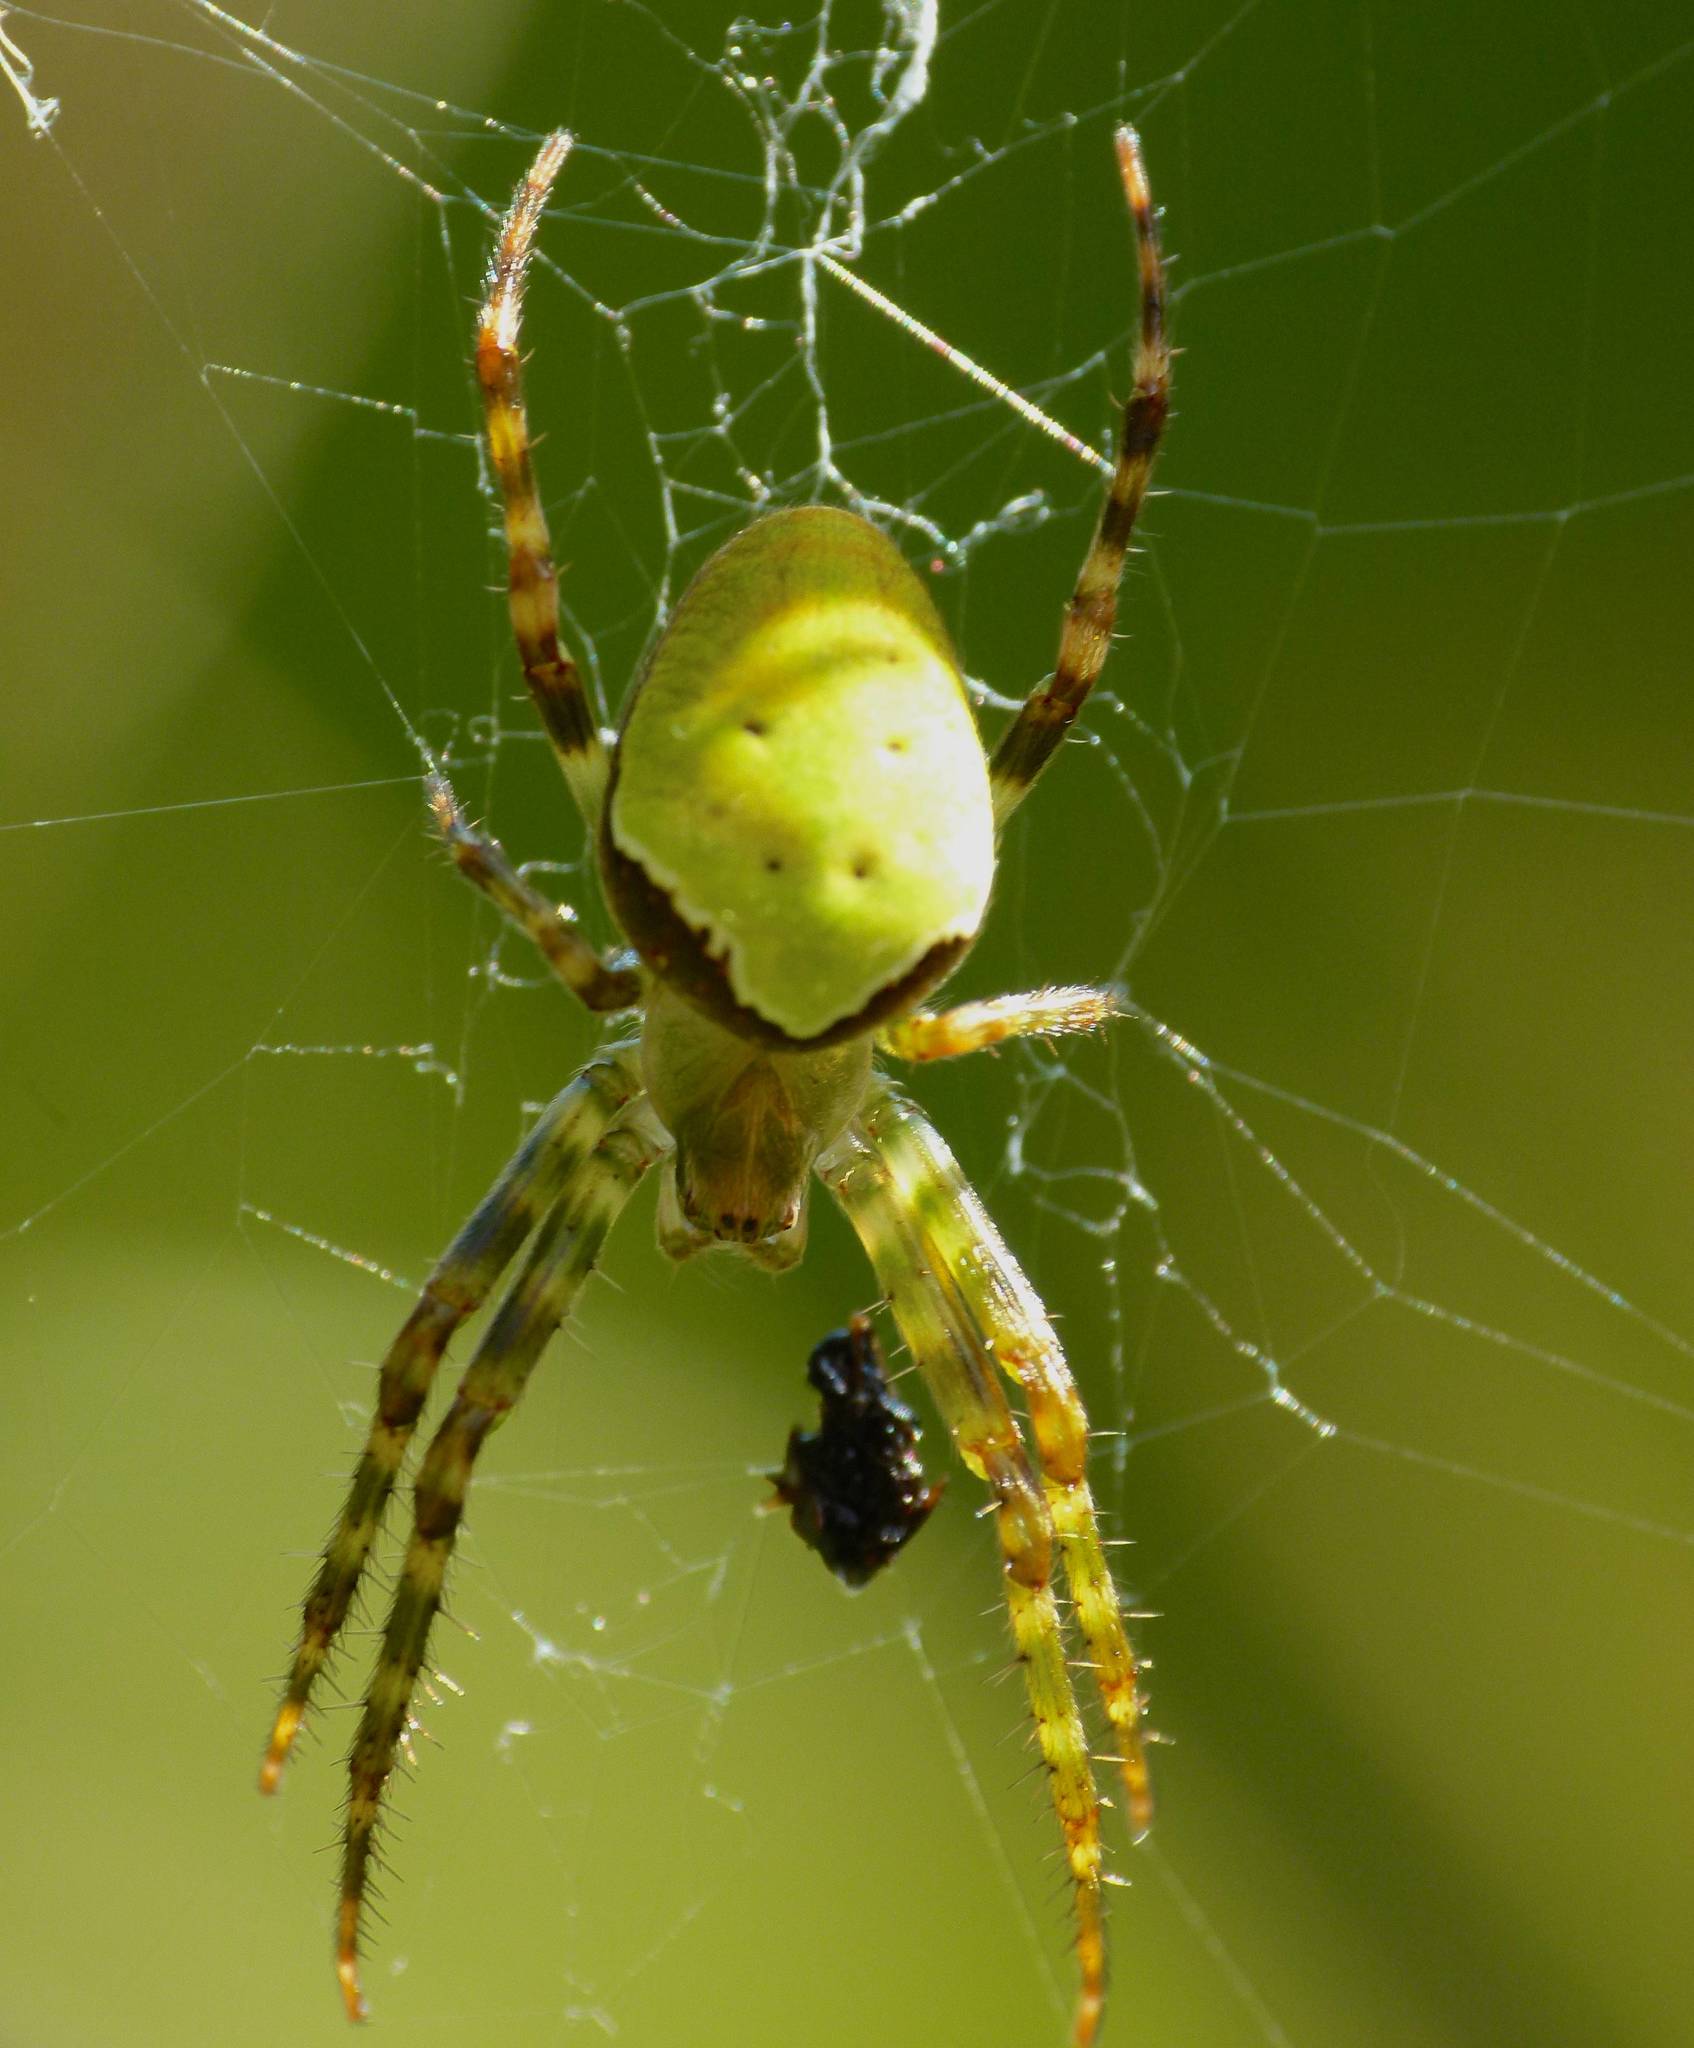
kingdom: Animalia
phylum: Arthropoda
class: Arachnida
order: Araneae
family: Araneidae
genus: Colaranea
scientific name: Colaranea viriditas
